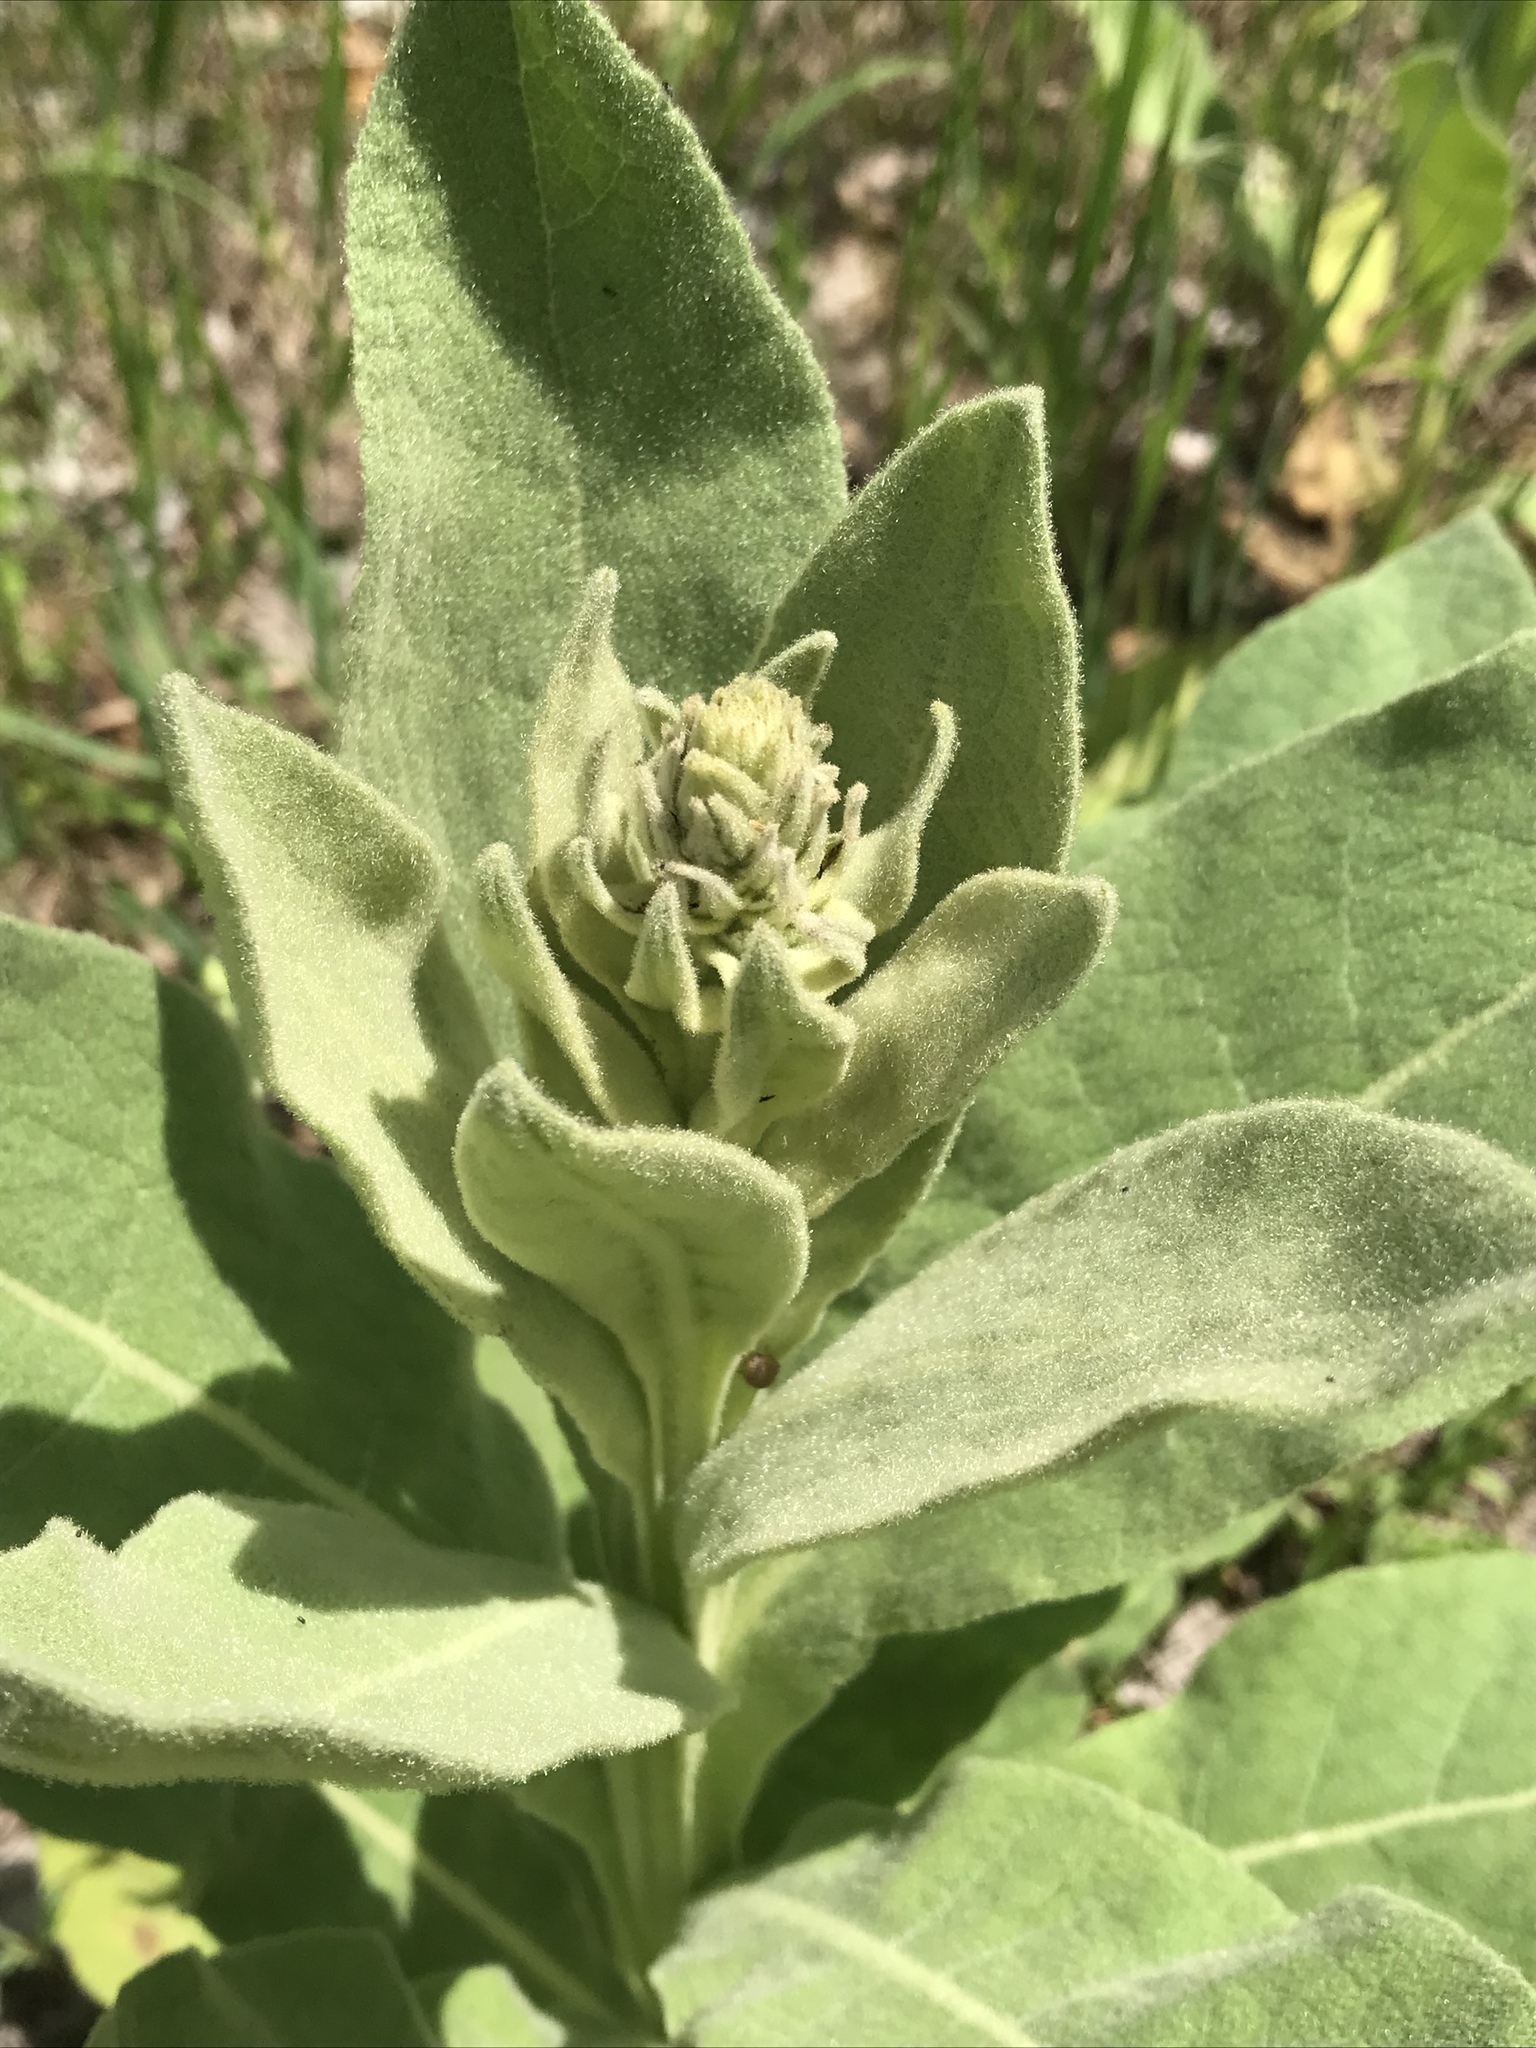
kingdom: Plantae
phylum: Tracheophyta
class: Magnoliopsida
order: Lamiales
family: Scrophulariaceae
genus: Verbascum
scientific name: Verbascum thapsus
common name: Common mullein
